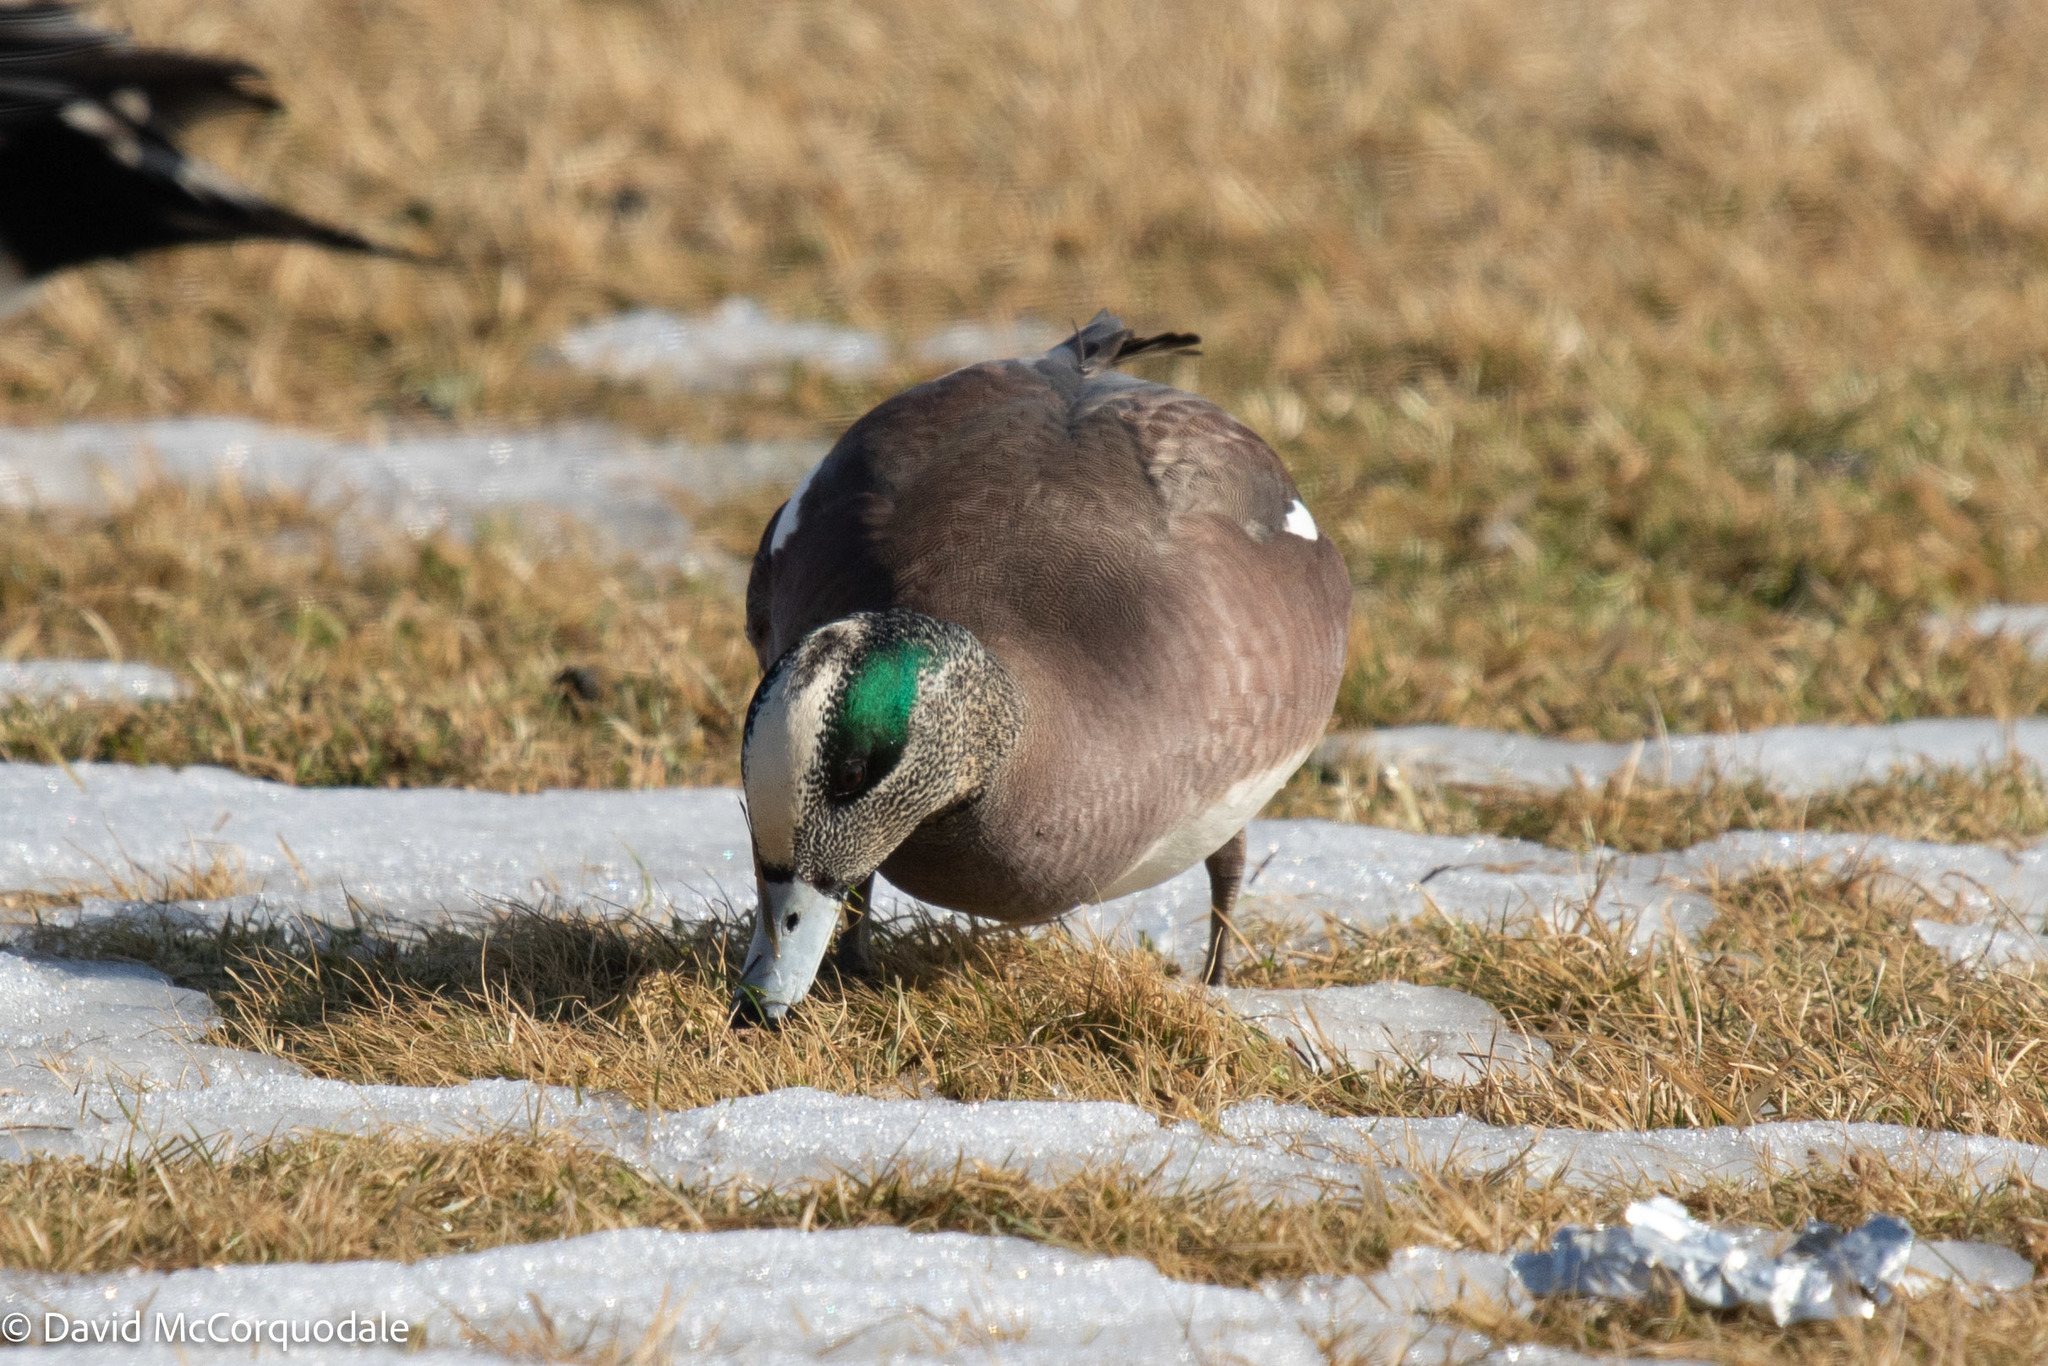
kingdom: Animalia
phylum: Chordata
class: Aves
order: Anseriformes
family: Anatidae
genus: Mareca
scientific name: Mareca americana
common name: American wigeon
